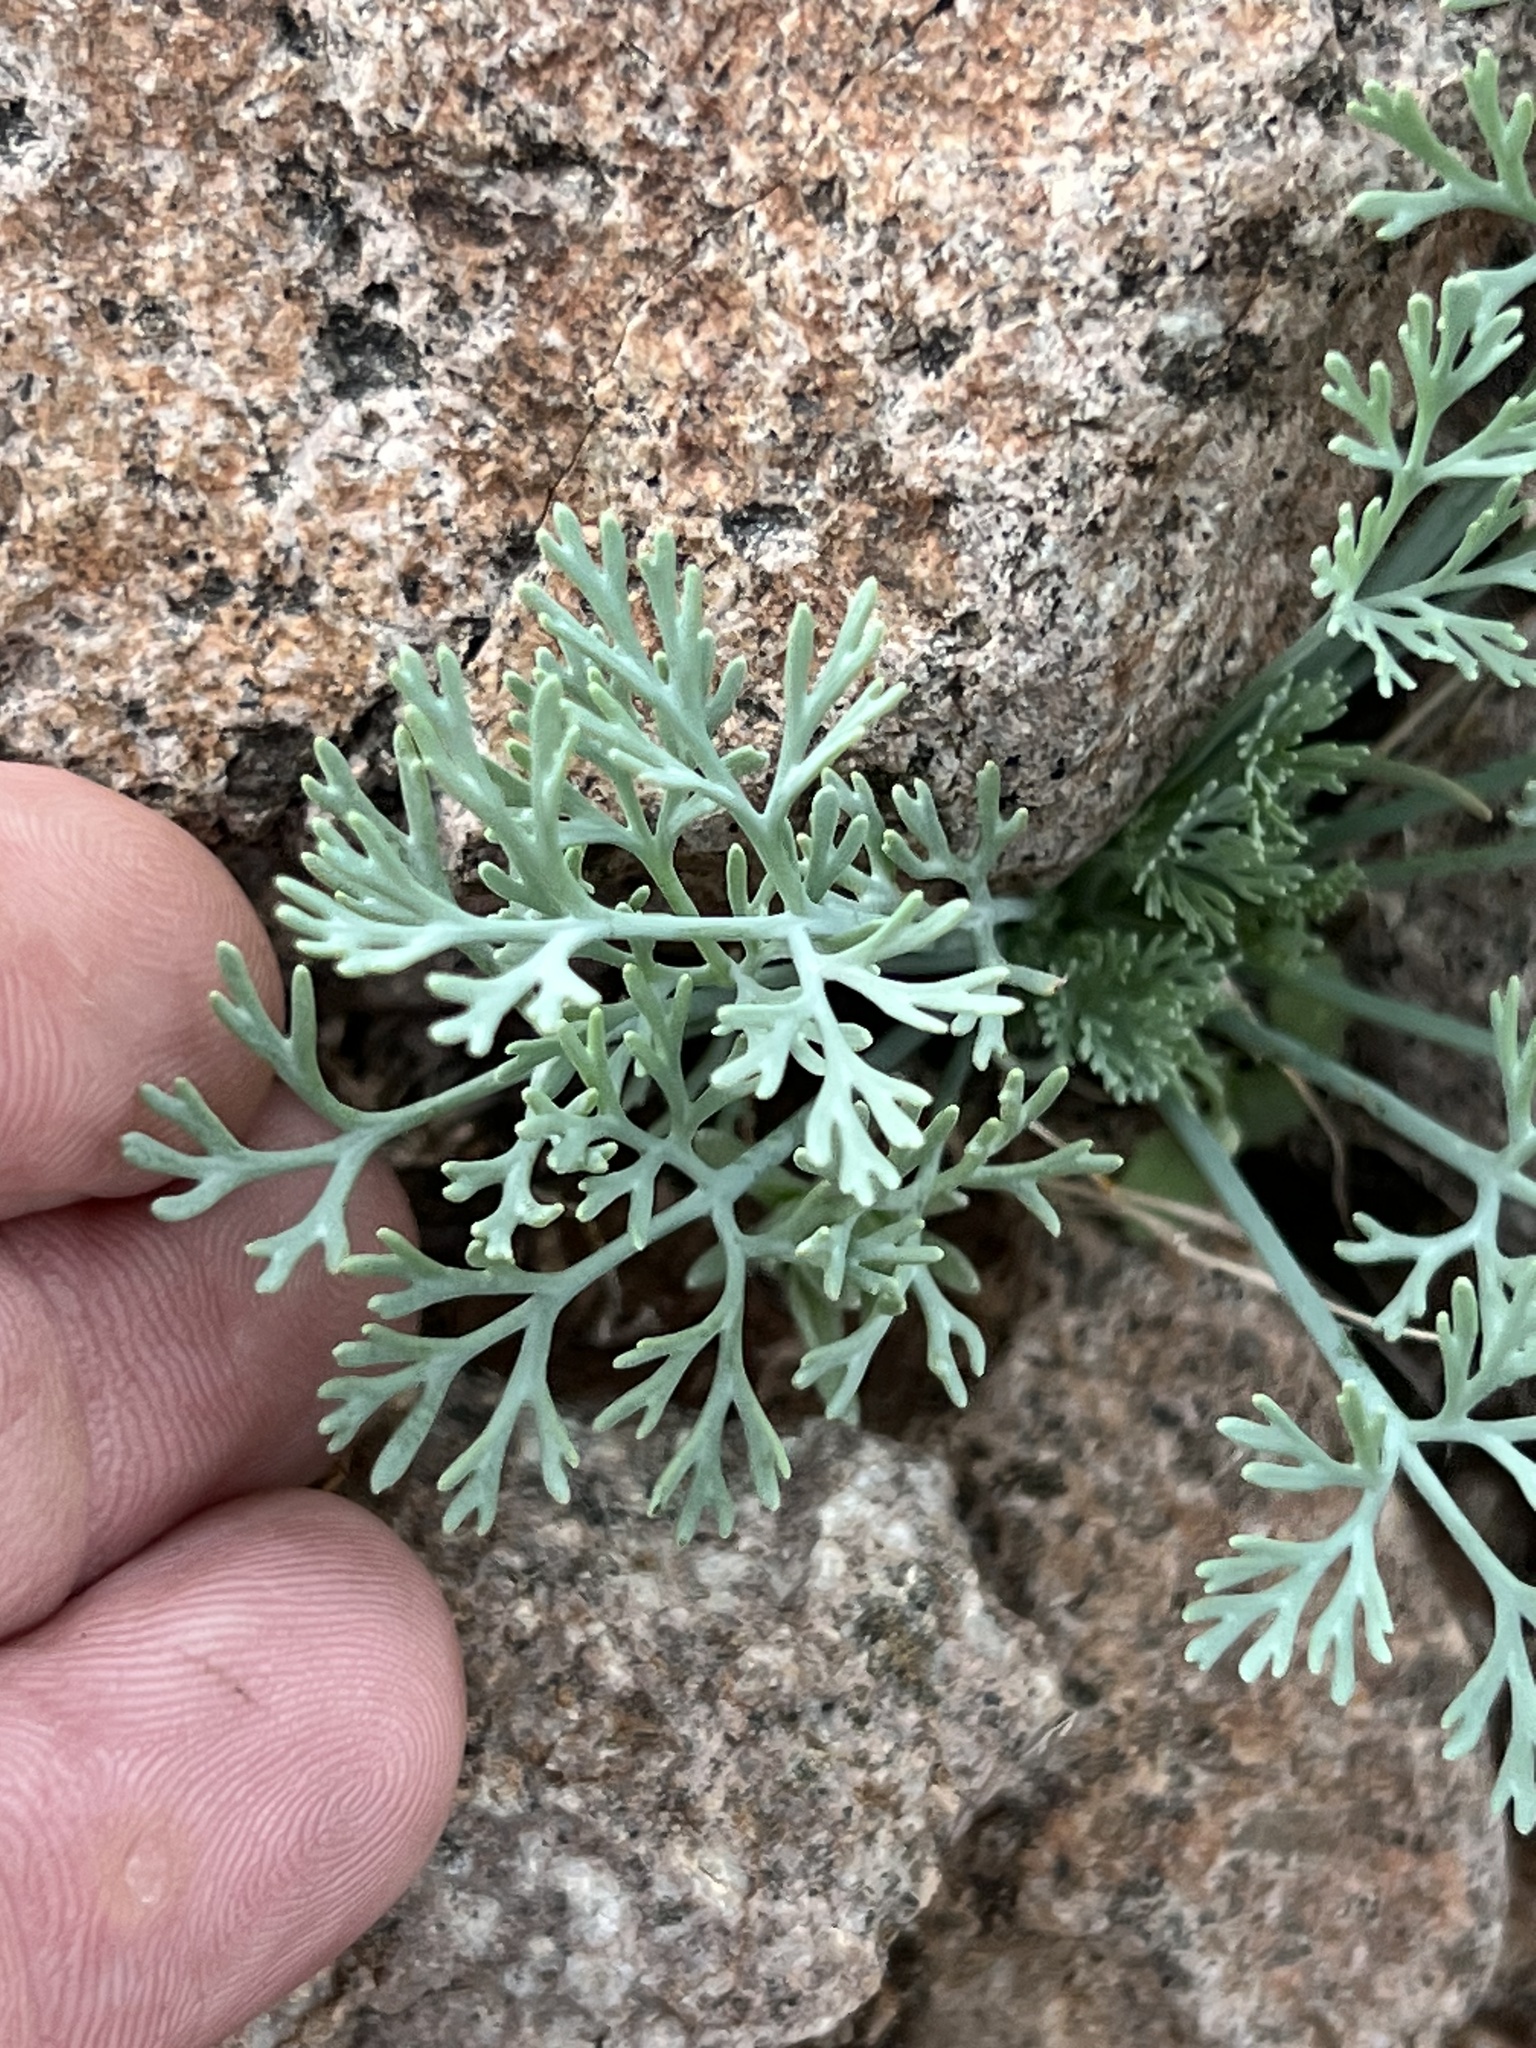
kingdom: Plantae
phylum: Tracheophyta
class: Magnoliopsida
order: Ranunculales
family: Papaveraceae
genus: Eschscholzia
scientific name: Eschscholzia minutiflora
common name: Small-flower california-poppy
